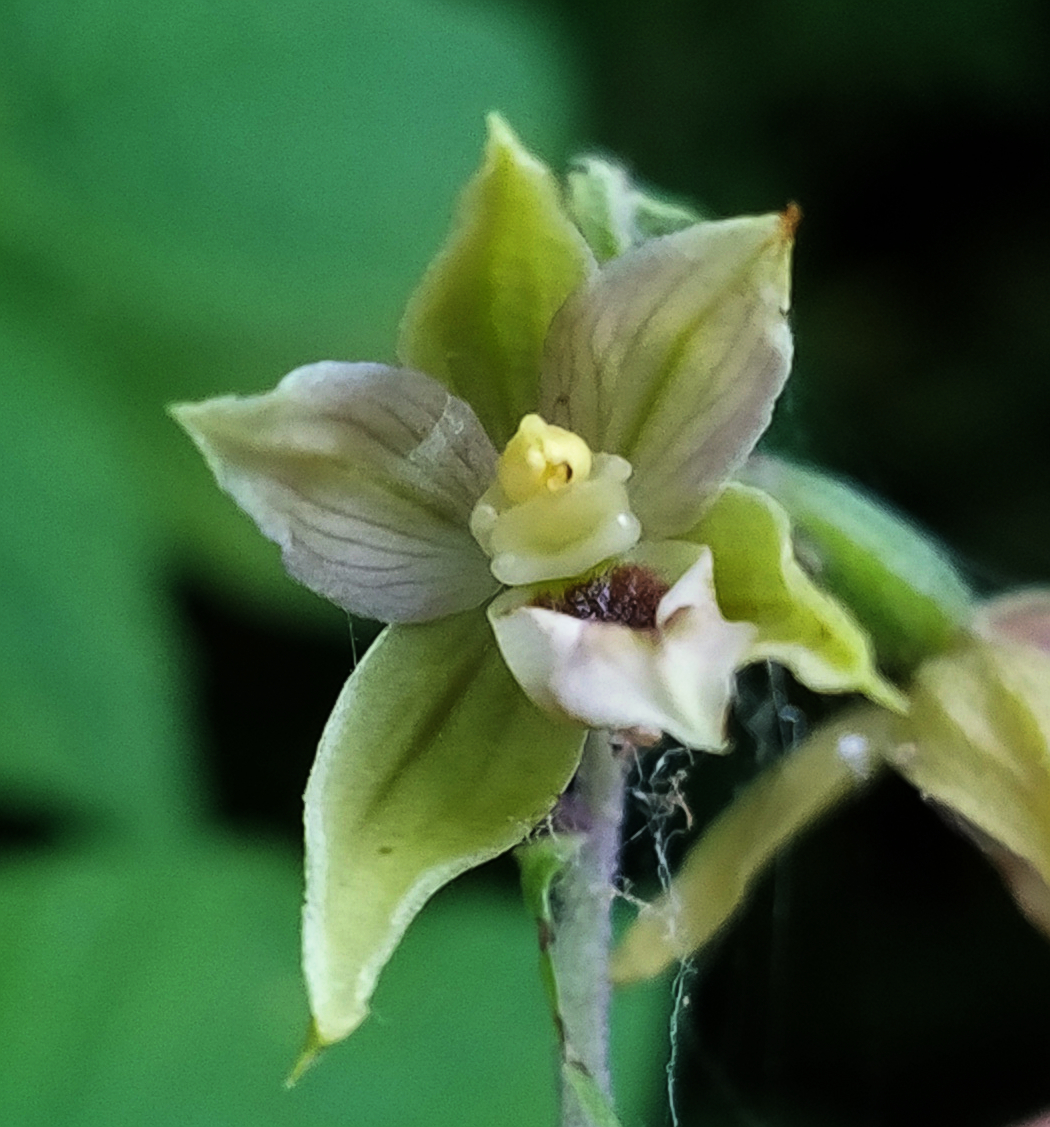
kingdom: Plantae
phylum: Tracheophyta
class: Liliopsida
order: Asparagales
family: Orchidaceae
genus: Epipactis
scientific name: Epipactis helleborine
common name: Broad-leaved helleborine
